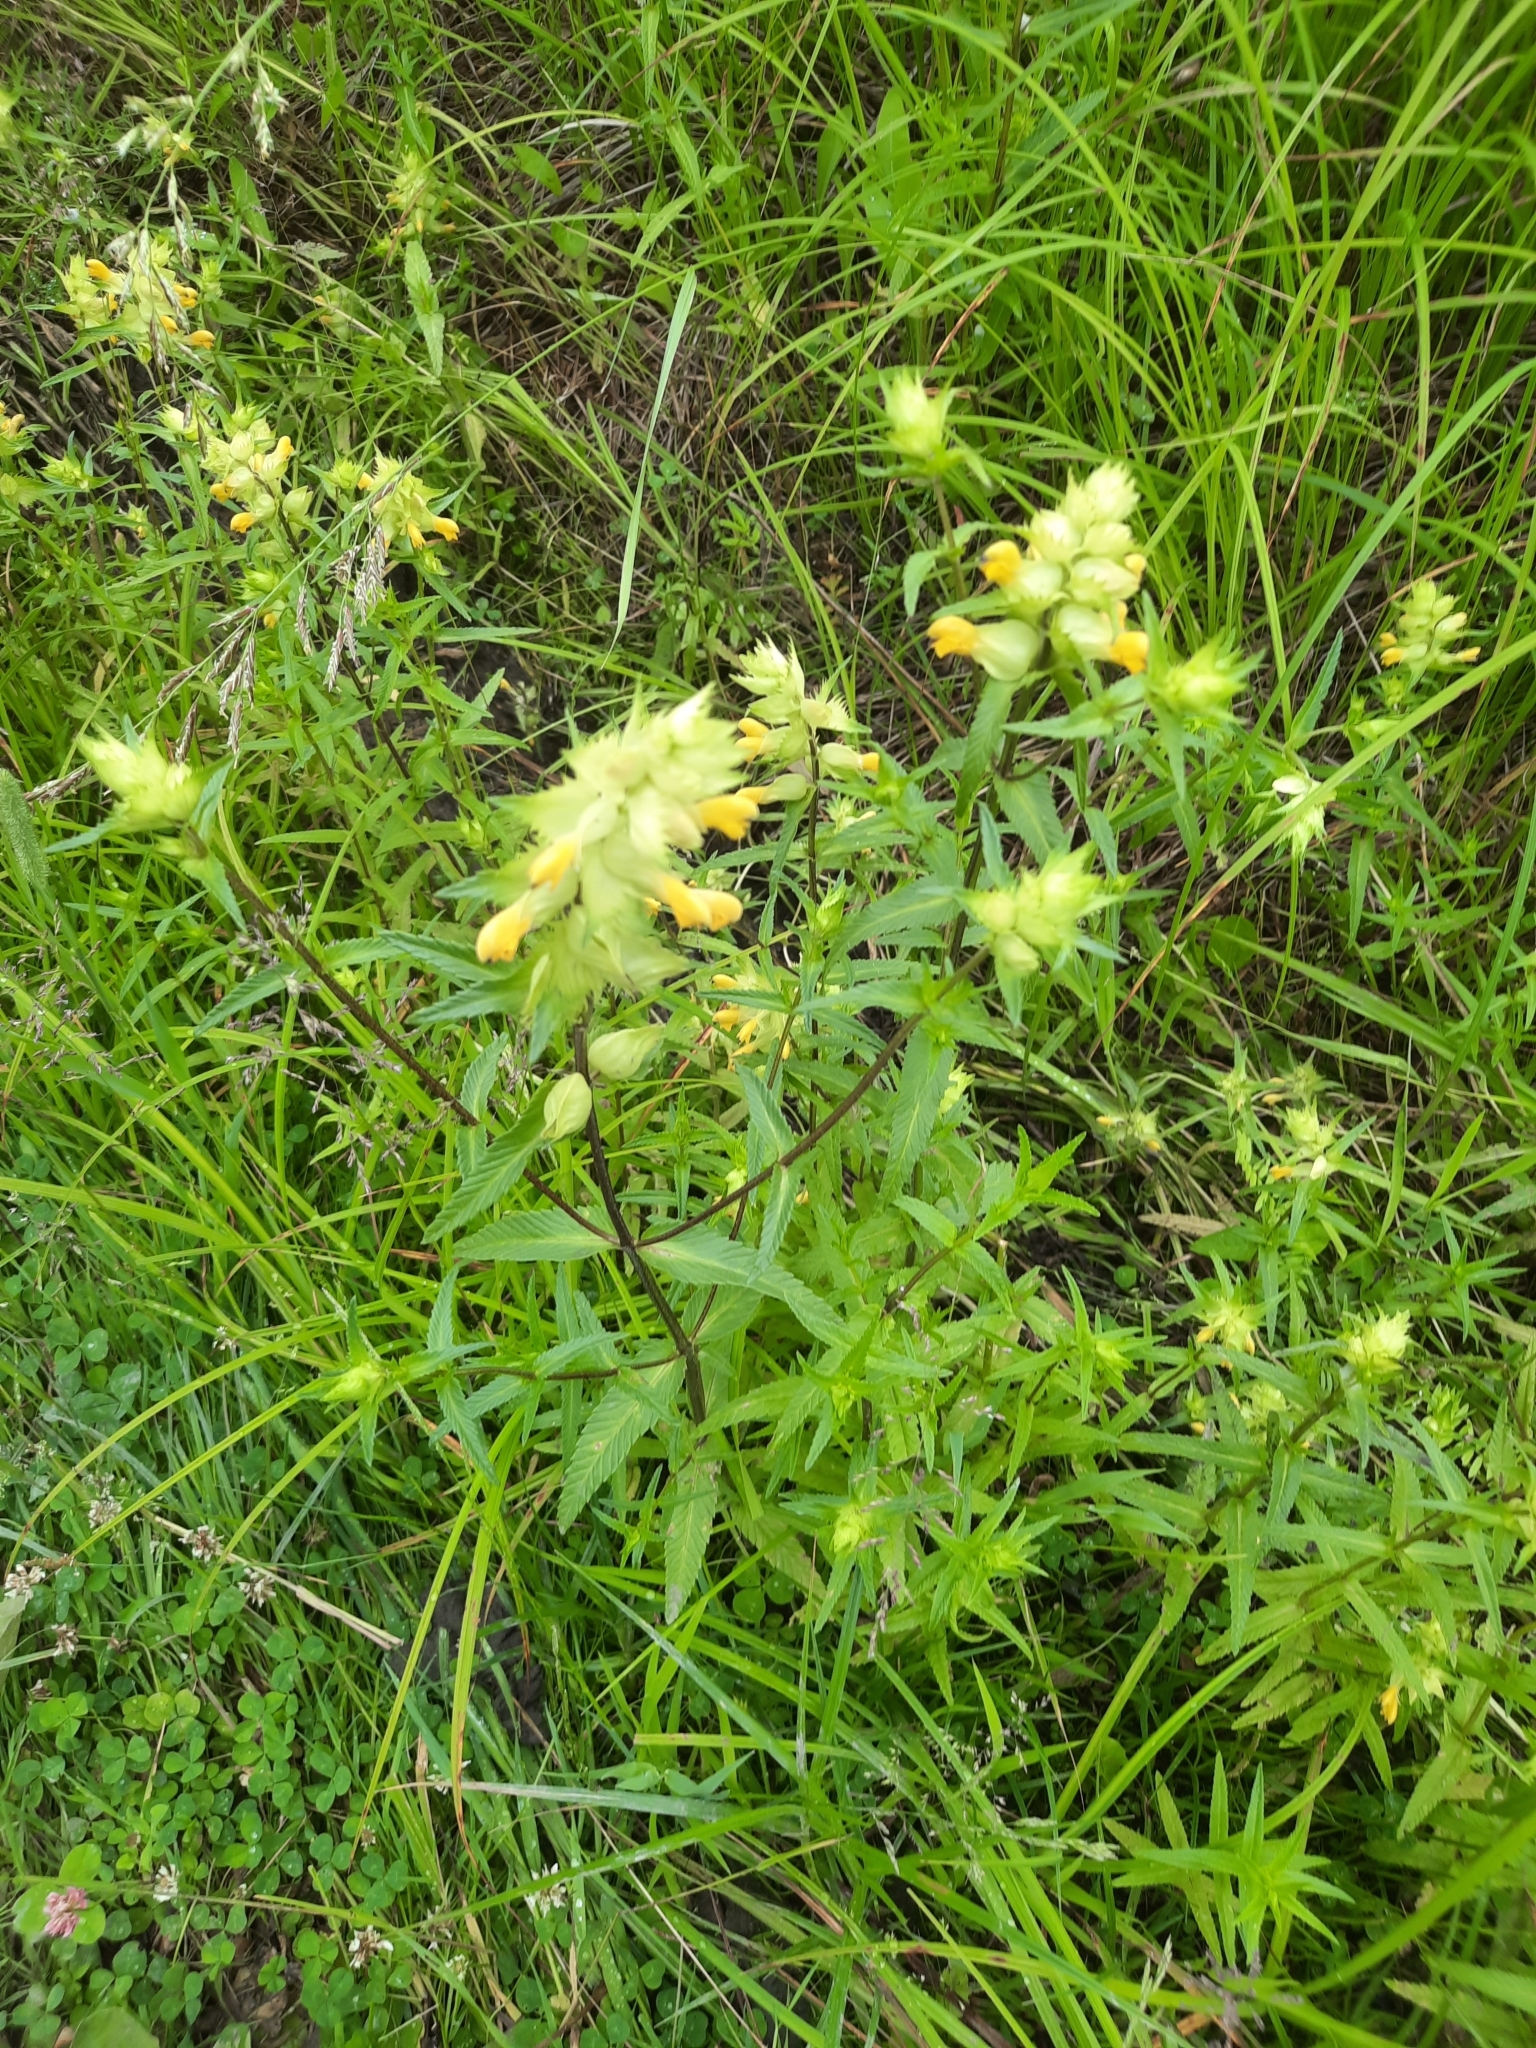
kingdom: Plantae
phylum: Tracheophyta
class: Magnoliopsida
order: Lamiales
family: Orobanchaceae
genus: Rhinanthus
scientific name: Rhinanthus serotinus
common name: Late-flowering yellow rattle
